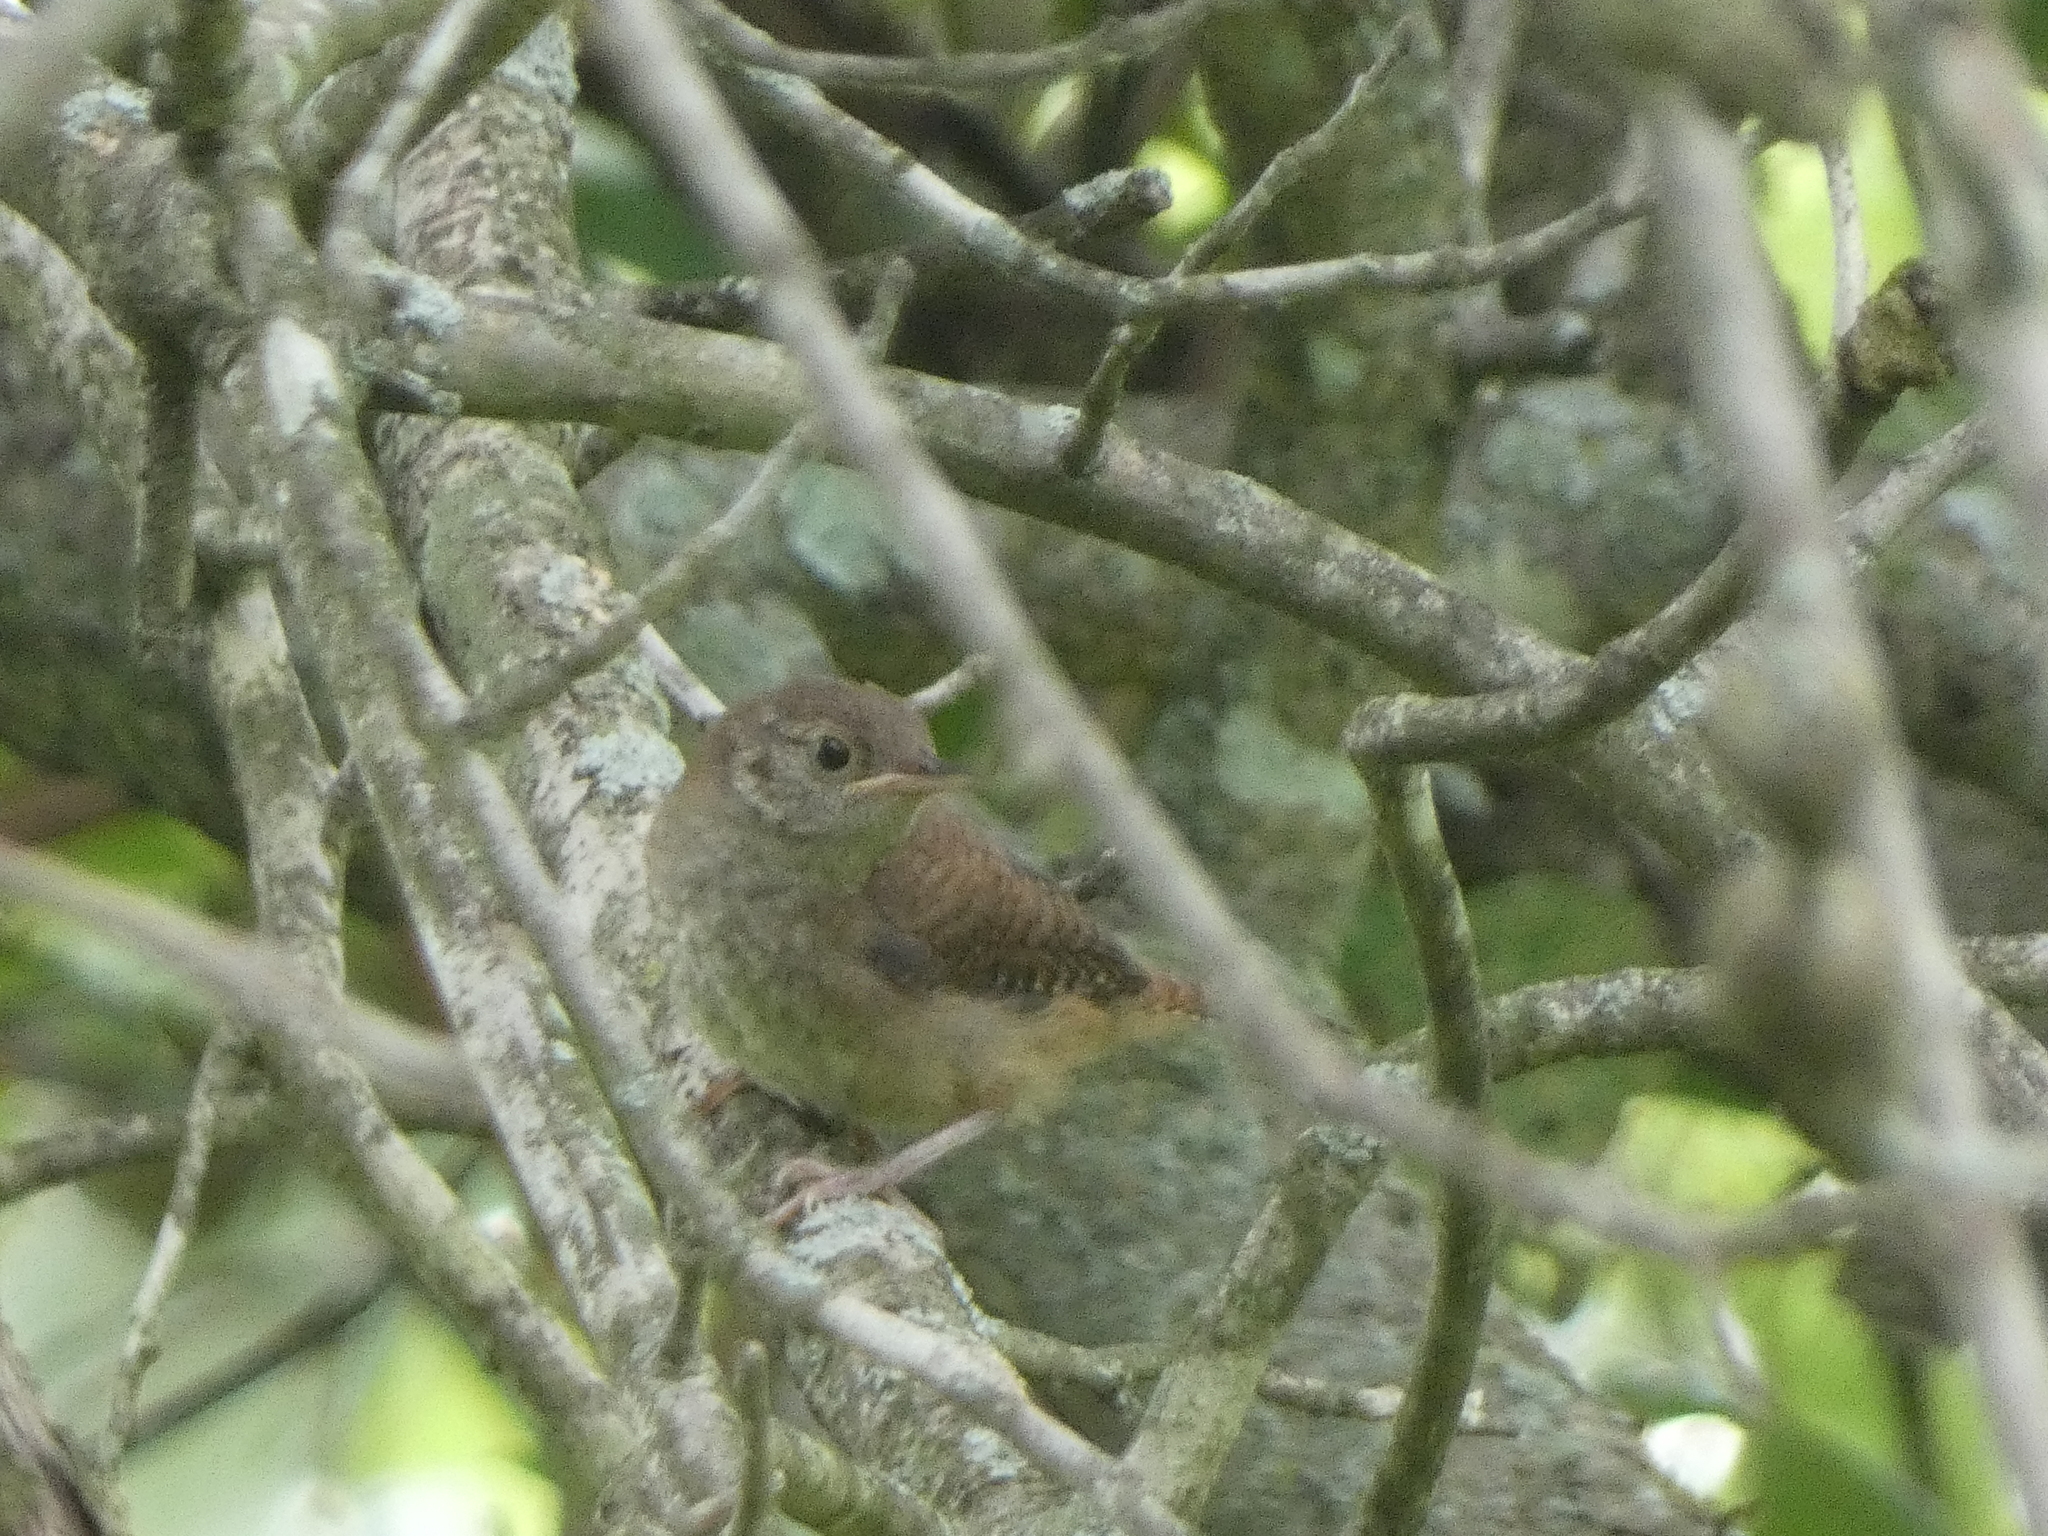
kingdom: Animalia
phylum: Chordata
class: Aves
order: Passeriformes
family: Troglodytidae
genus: Troglodytes
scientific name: Troglodytes aedon
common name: House wren
